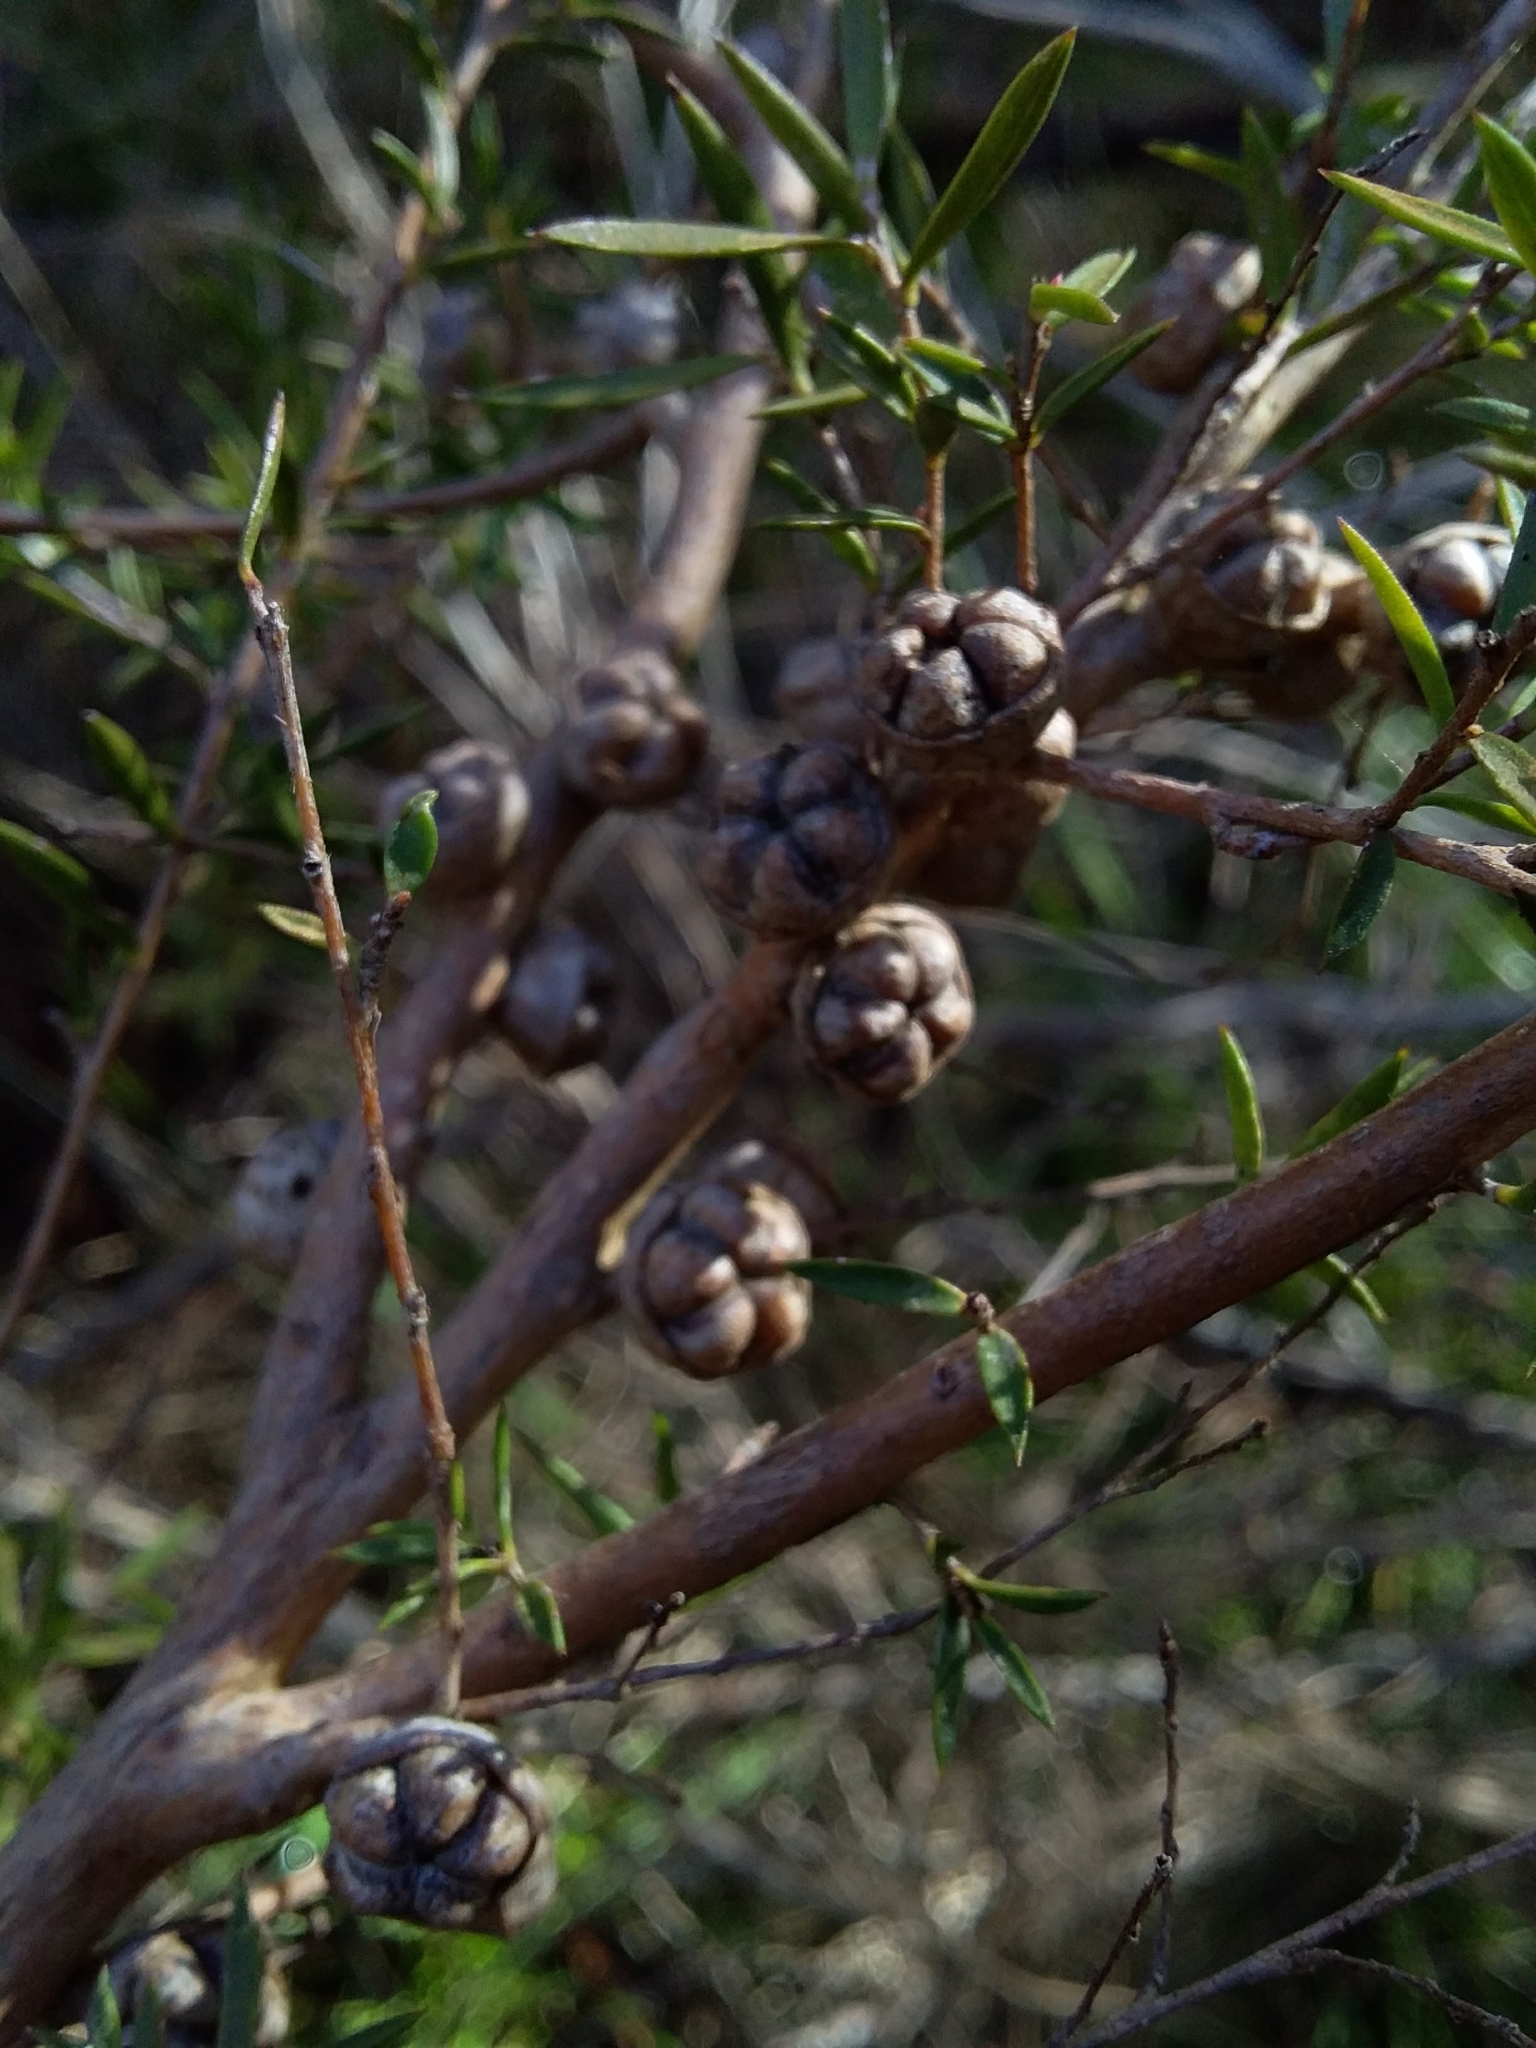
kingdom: Plantae
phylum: Tracheophyta
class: Magnoliopsida
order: Myrtales
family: Myrtaceae
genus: Leptospermum
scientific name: Leptospermum continentale
